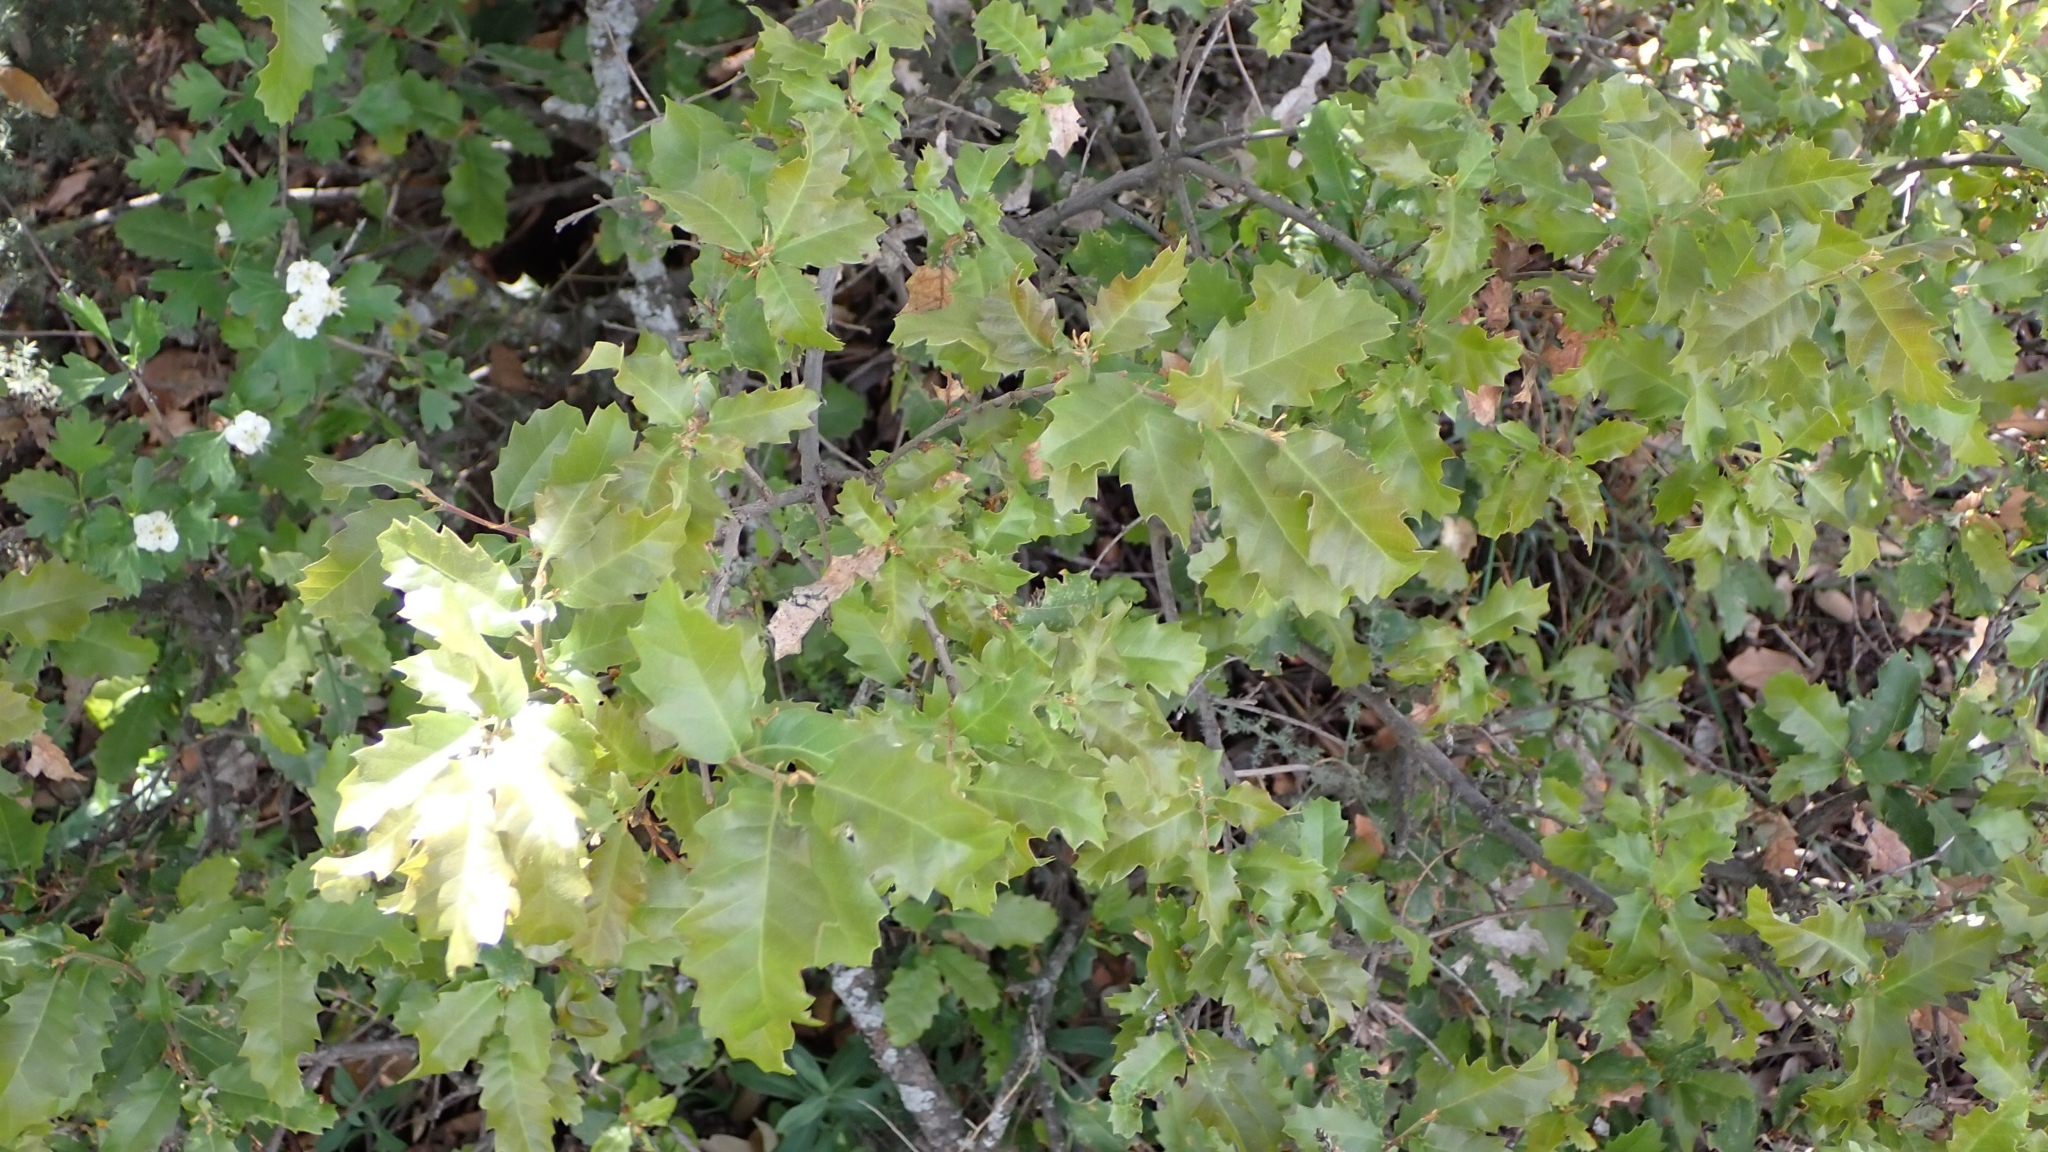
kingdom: Plantae
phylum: Tracheophyta
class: Magnoliopsida
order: Fagales
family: Fagaceae
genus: Quercus
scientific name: Quercus faginea
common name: Gall oak tree
